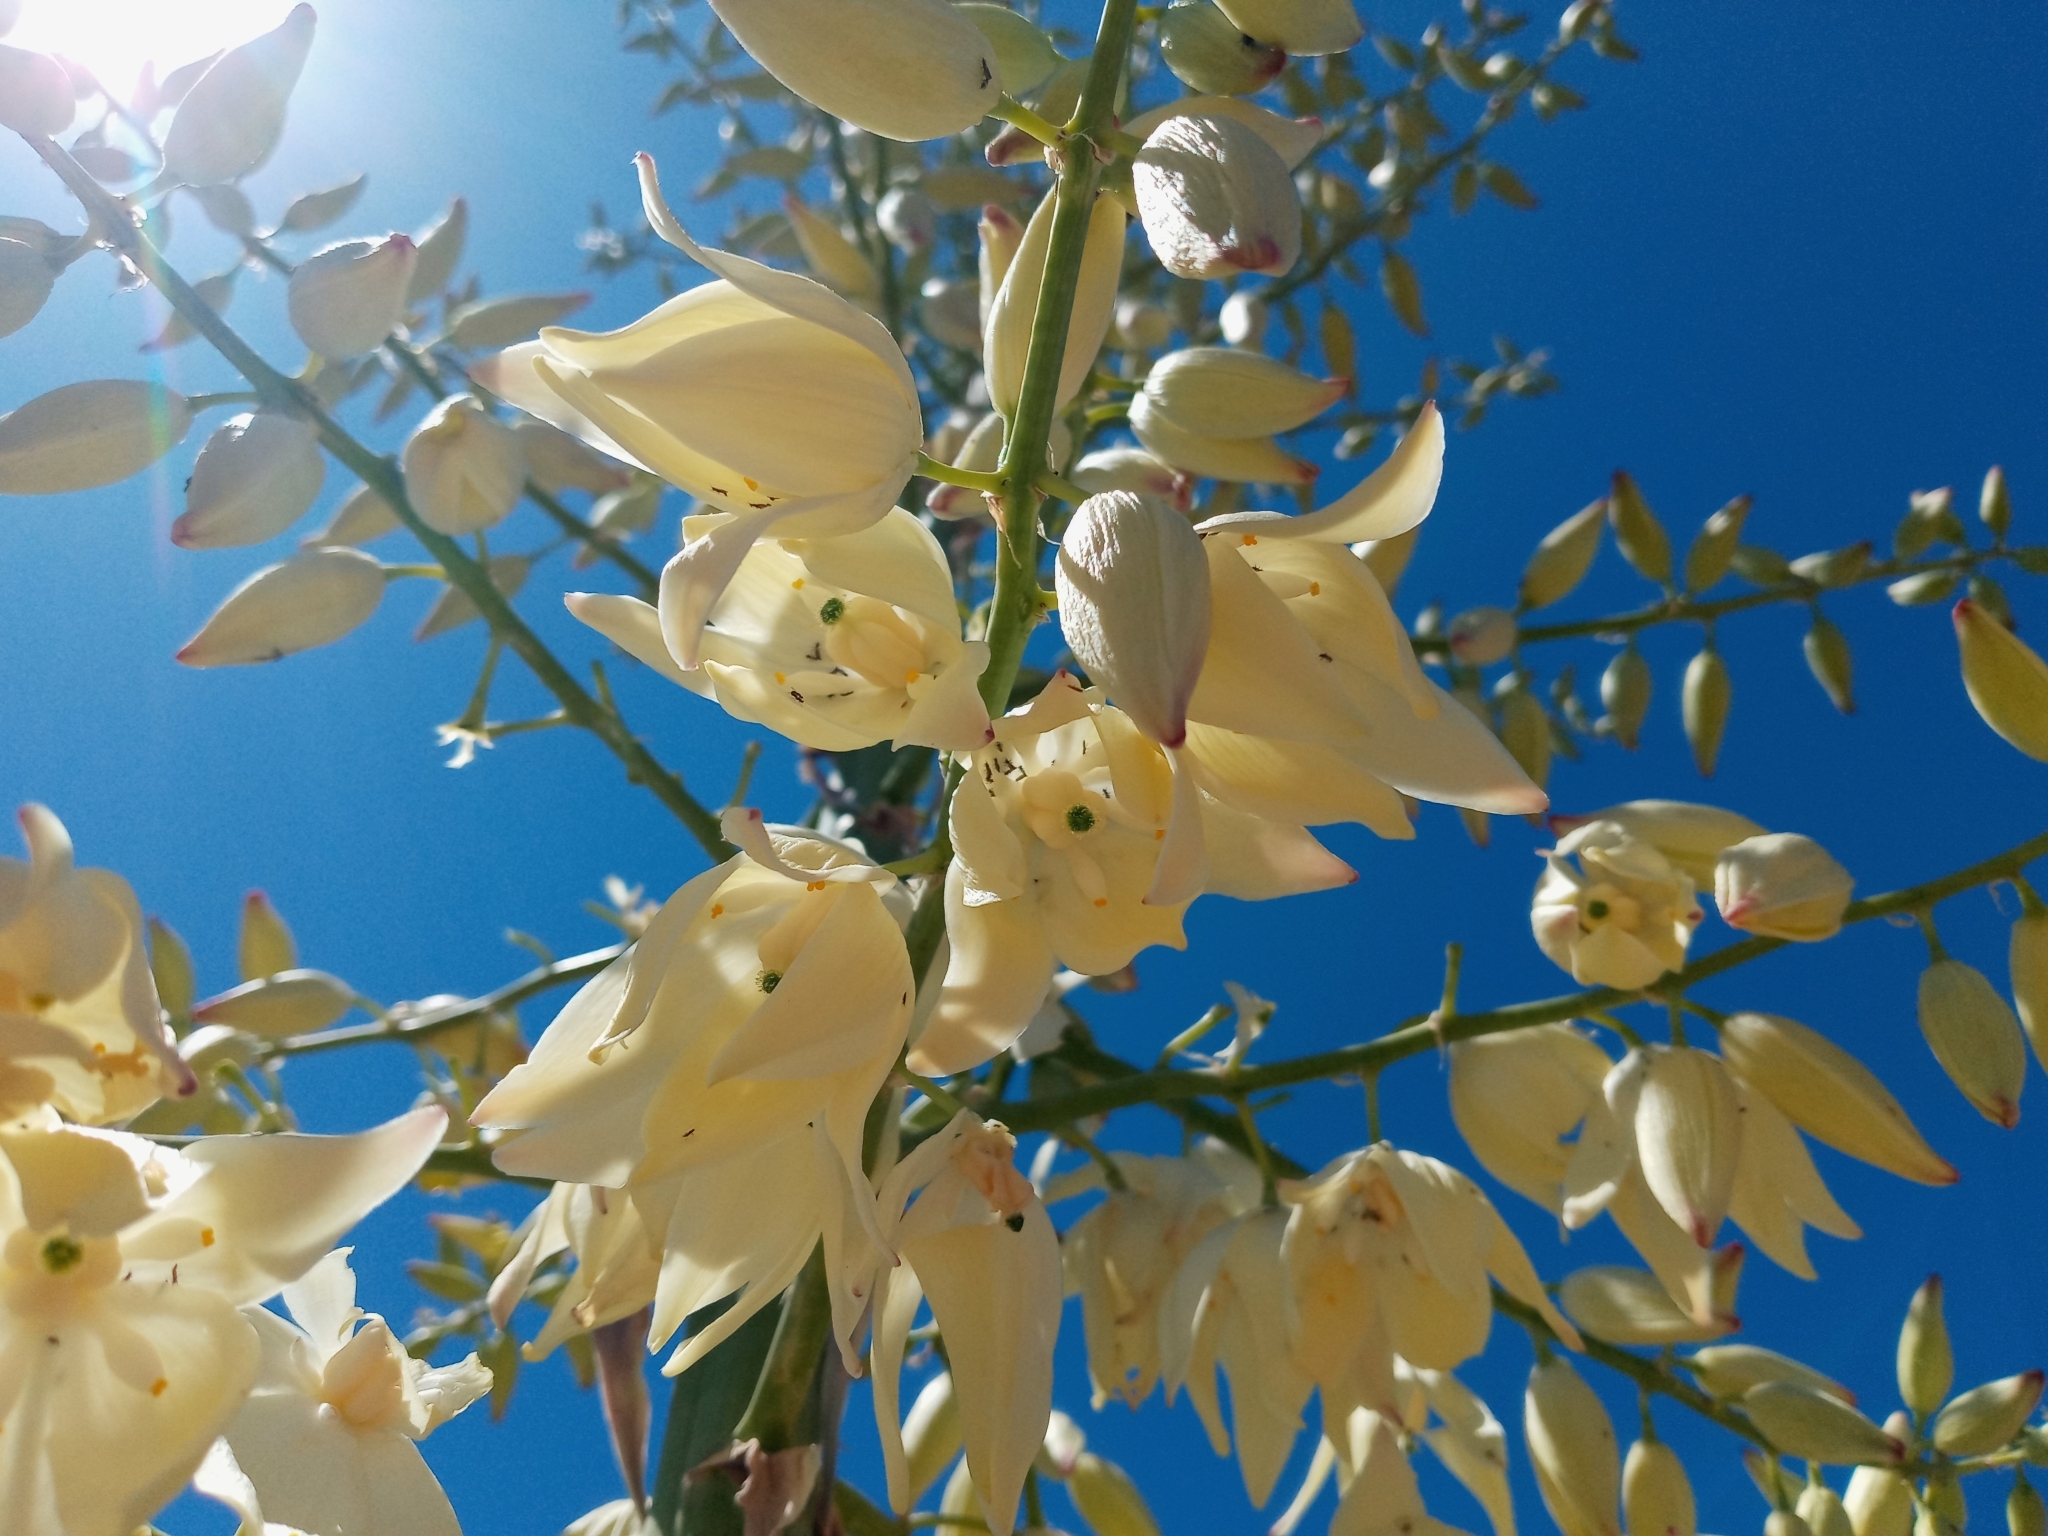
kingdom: Plantae
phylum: Tracheophyta
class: Liliopsida
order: Asparagales
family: Asparagaceae
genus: Hesperoyucca
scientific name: Hesperoyucca whipplei
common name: Our lord's-candle
